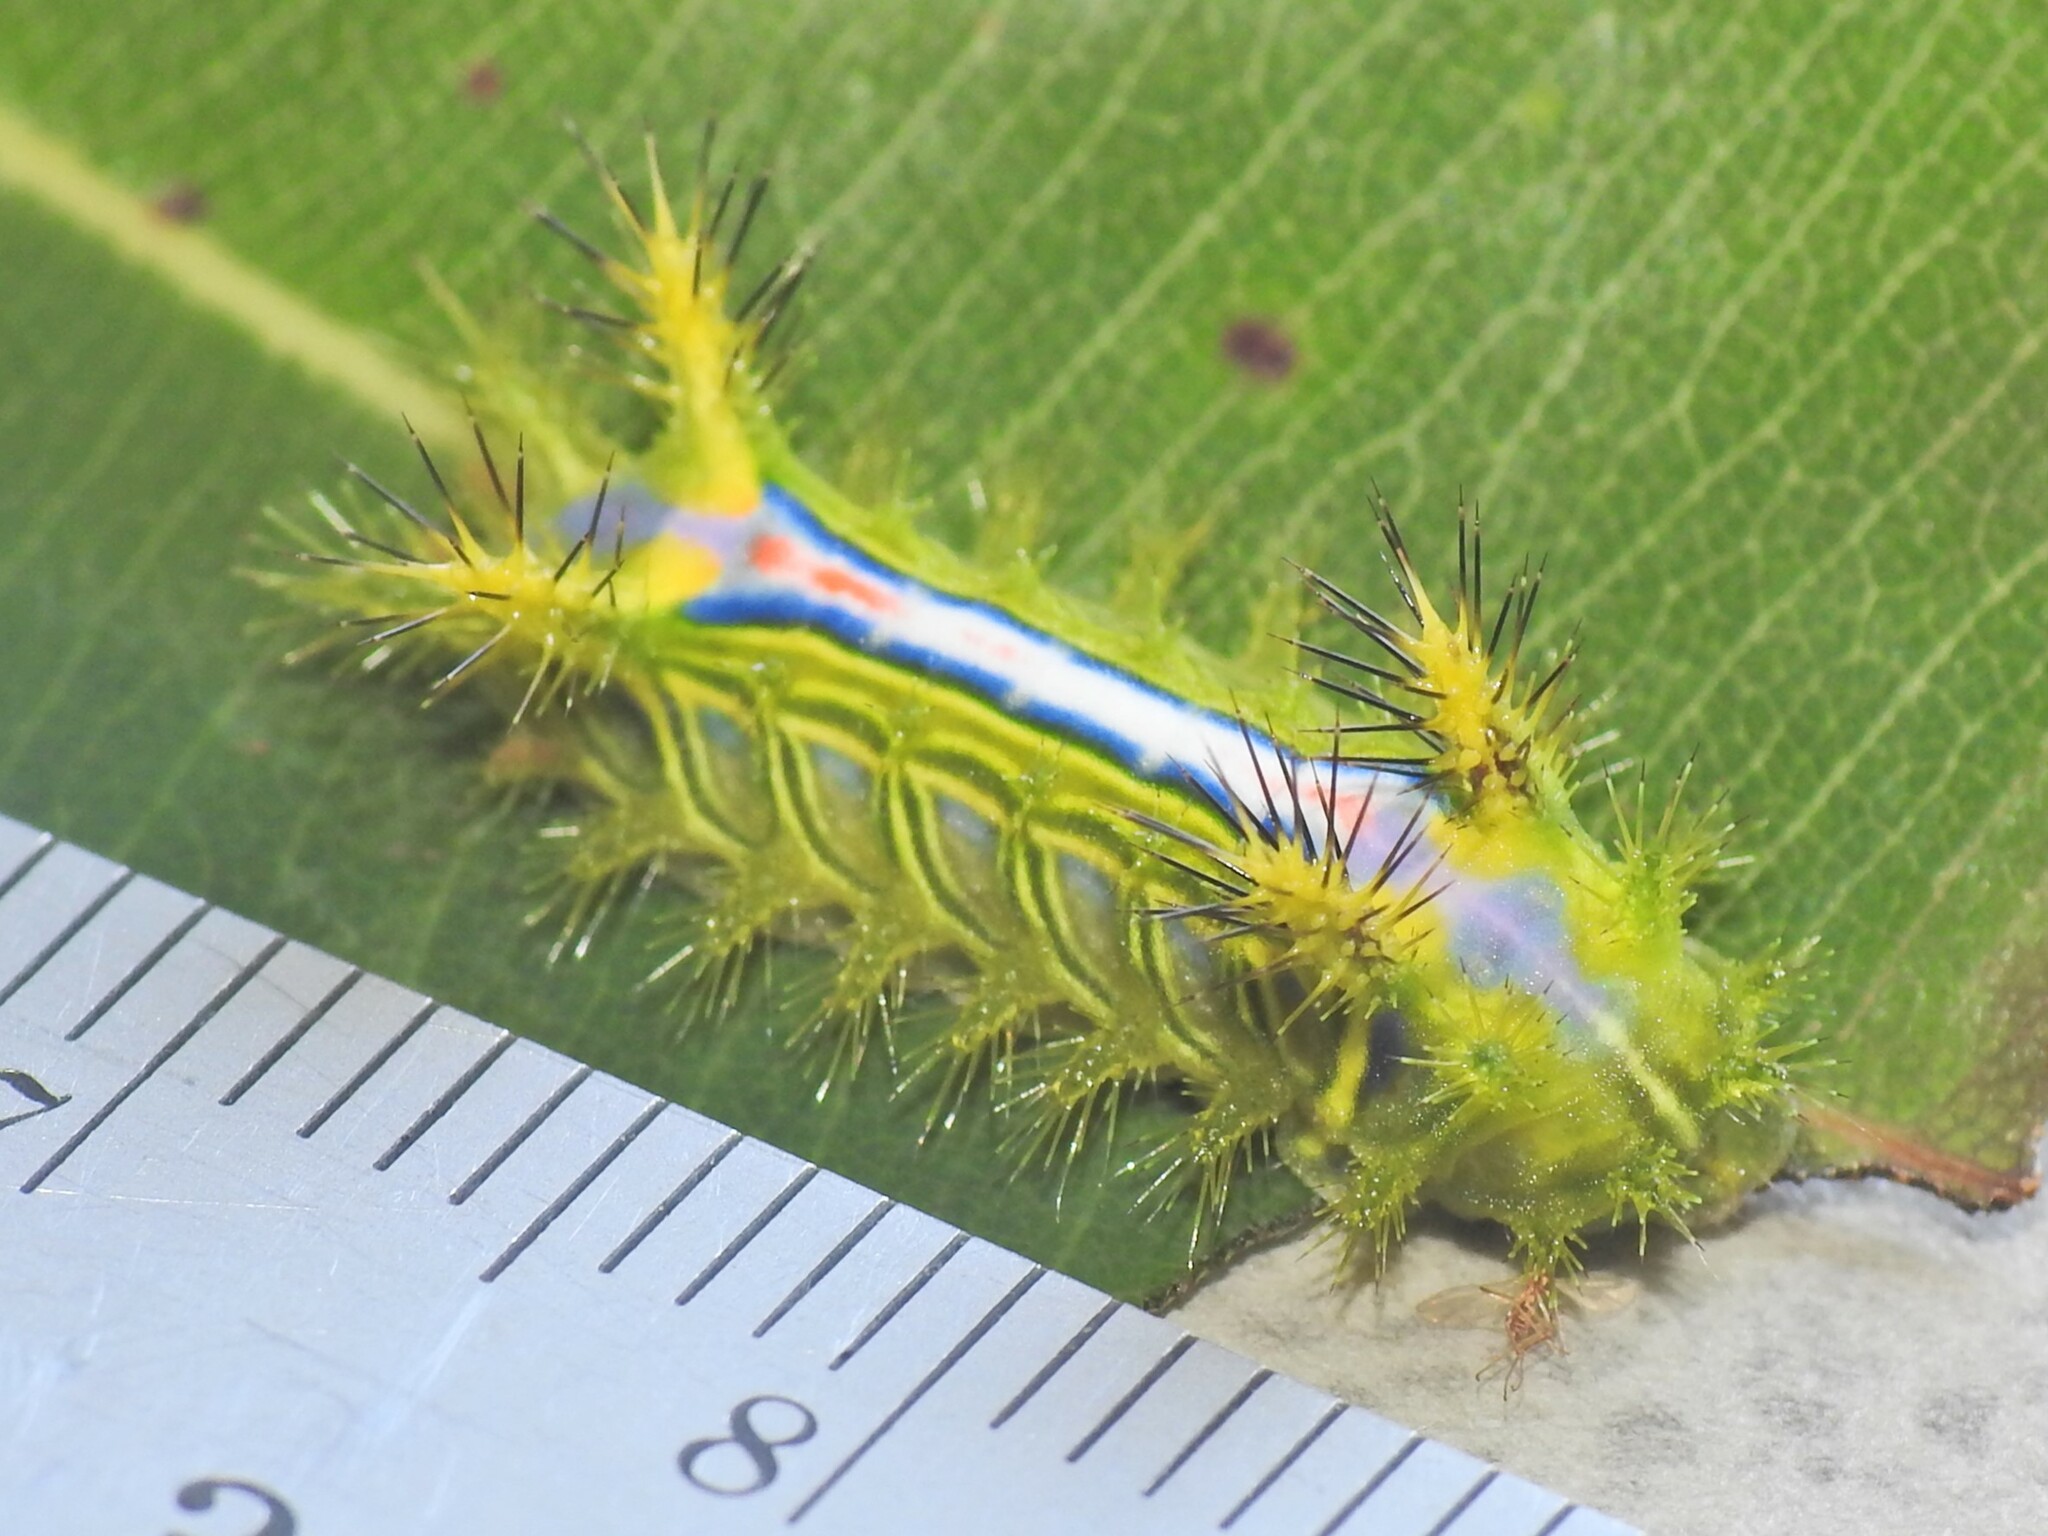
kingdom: Animalia
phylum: Arthropoda
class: Insecta
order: Lepidoptera
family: Limacodidae
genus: Anaxidia
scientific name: Anaxidia lozogramma
